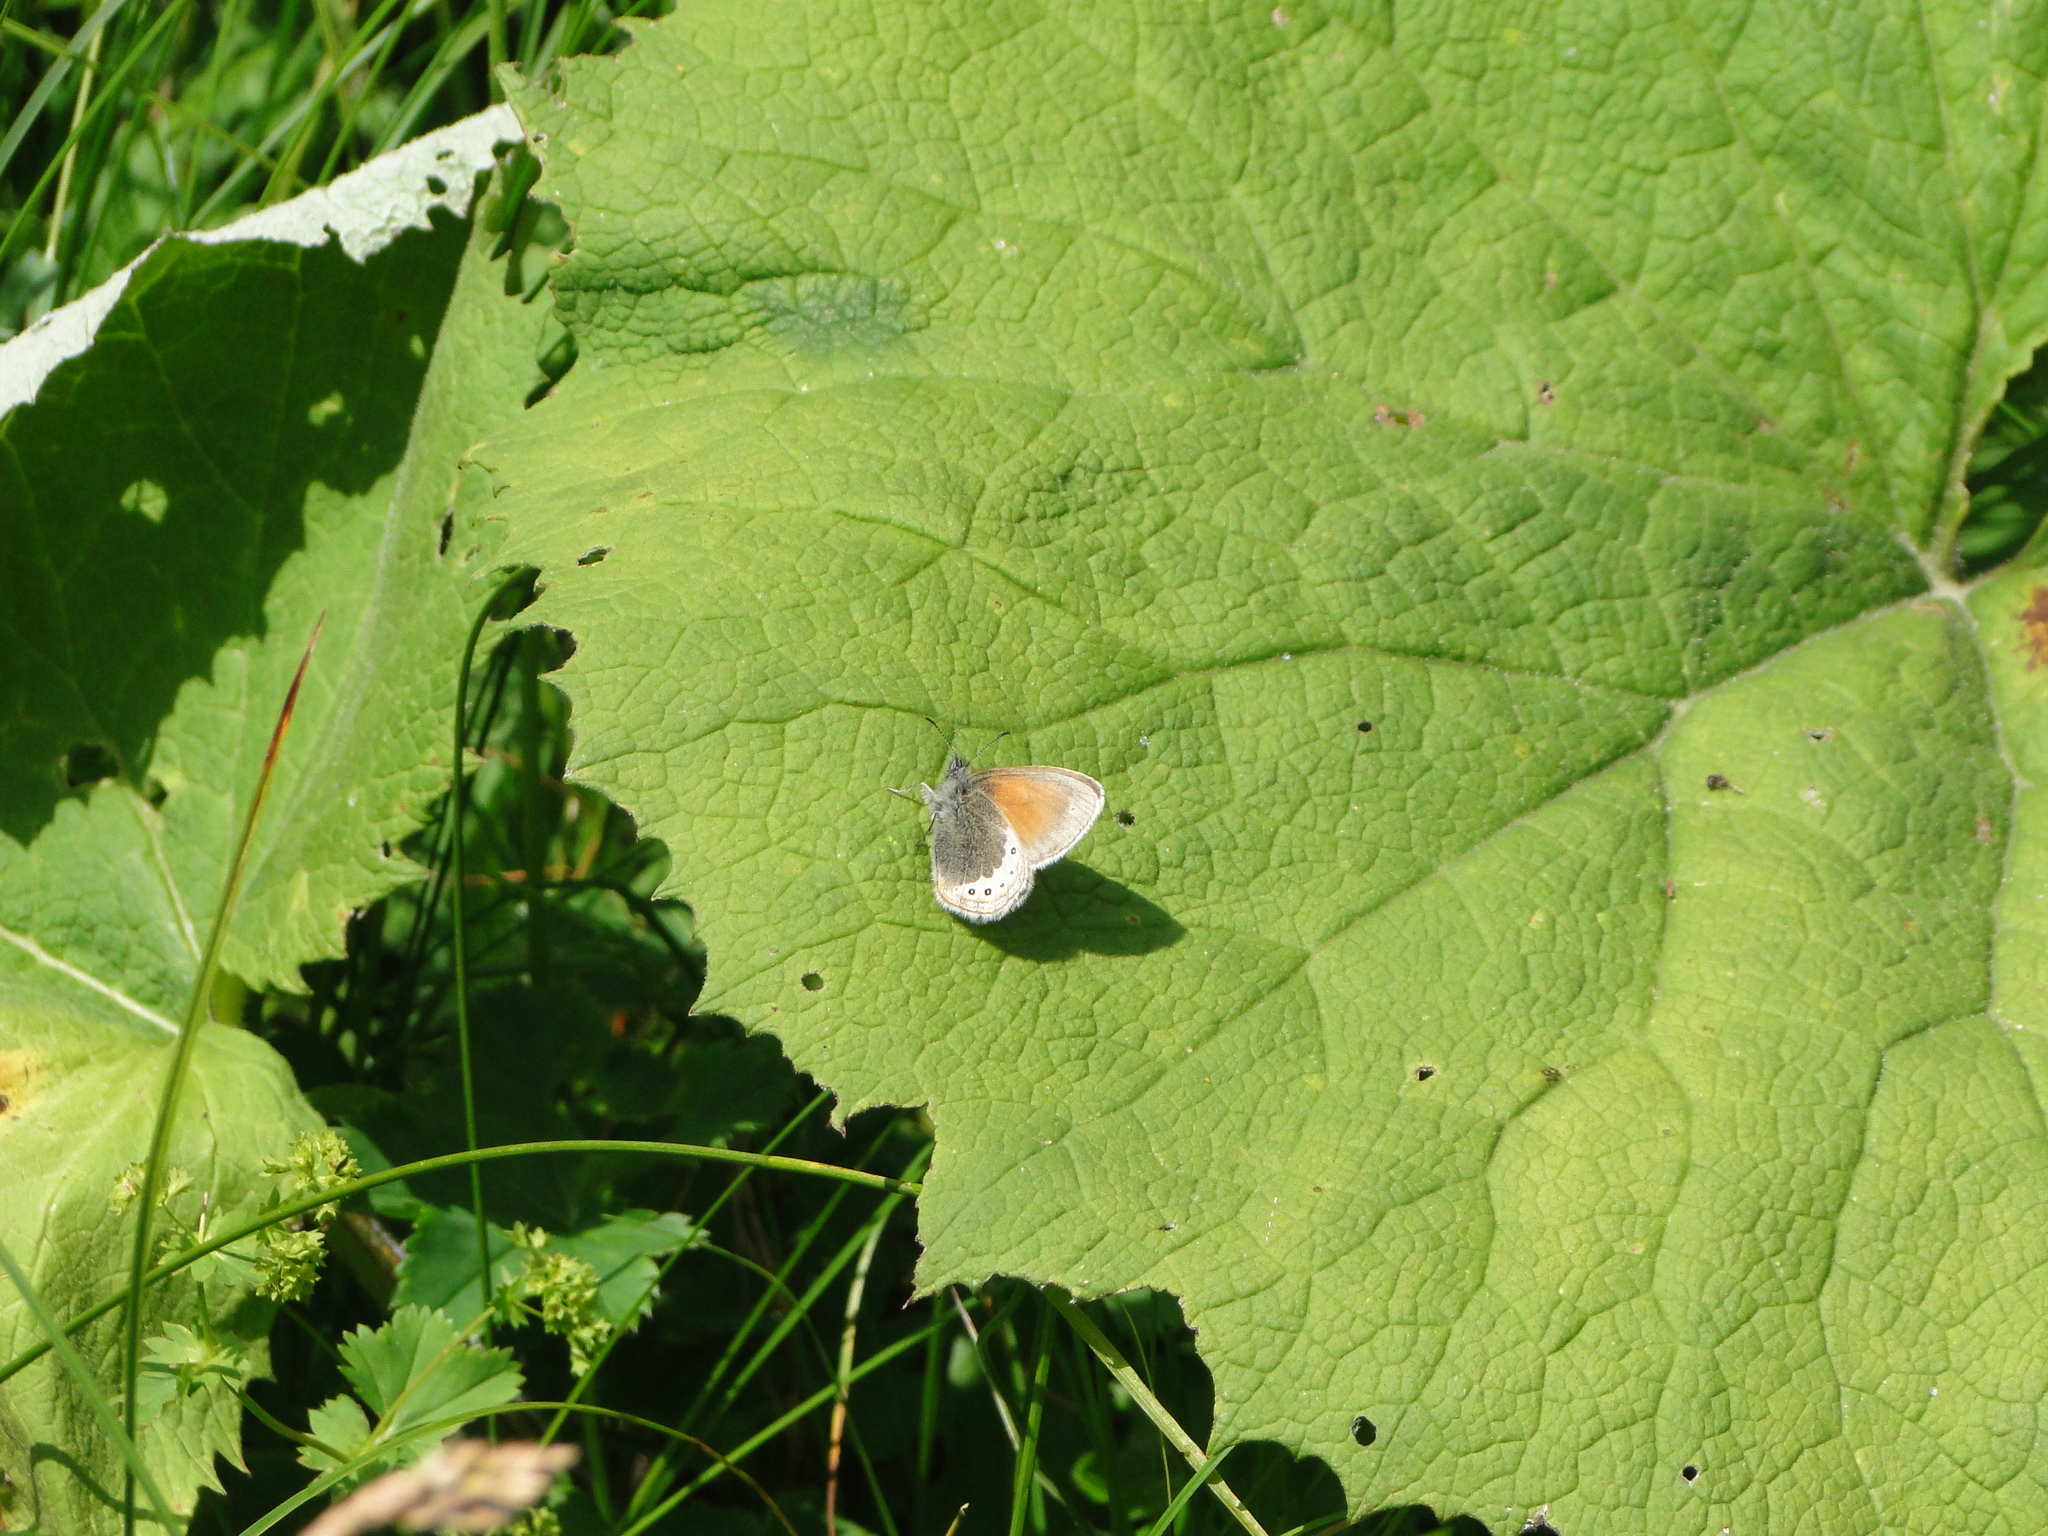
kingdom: Animalia
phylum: Arthropoda
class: Insecta
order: Lepidoptera
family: Nymphalidae
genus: Coenonympha
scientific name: Coenonympha
